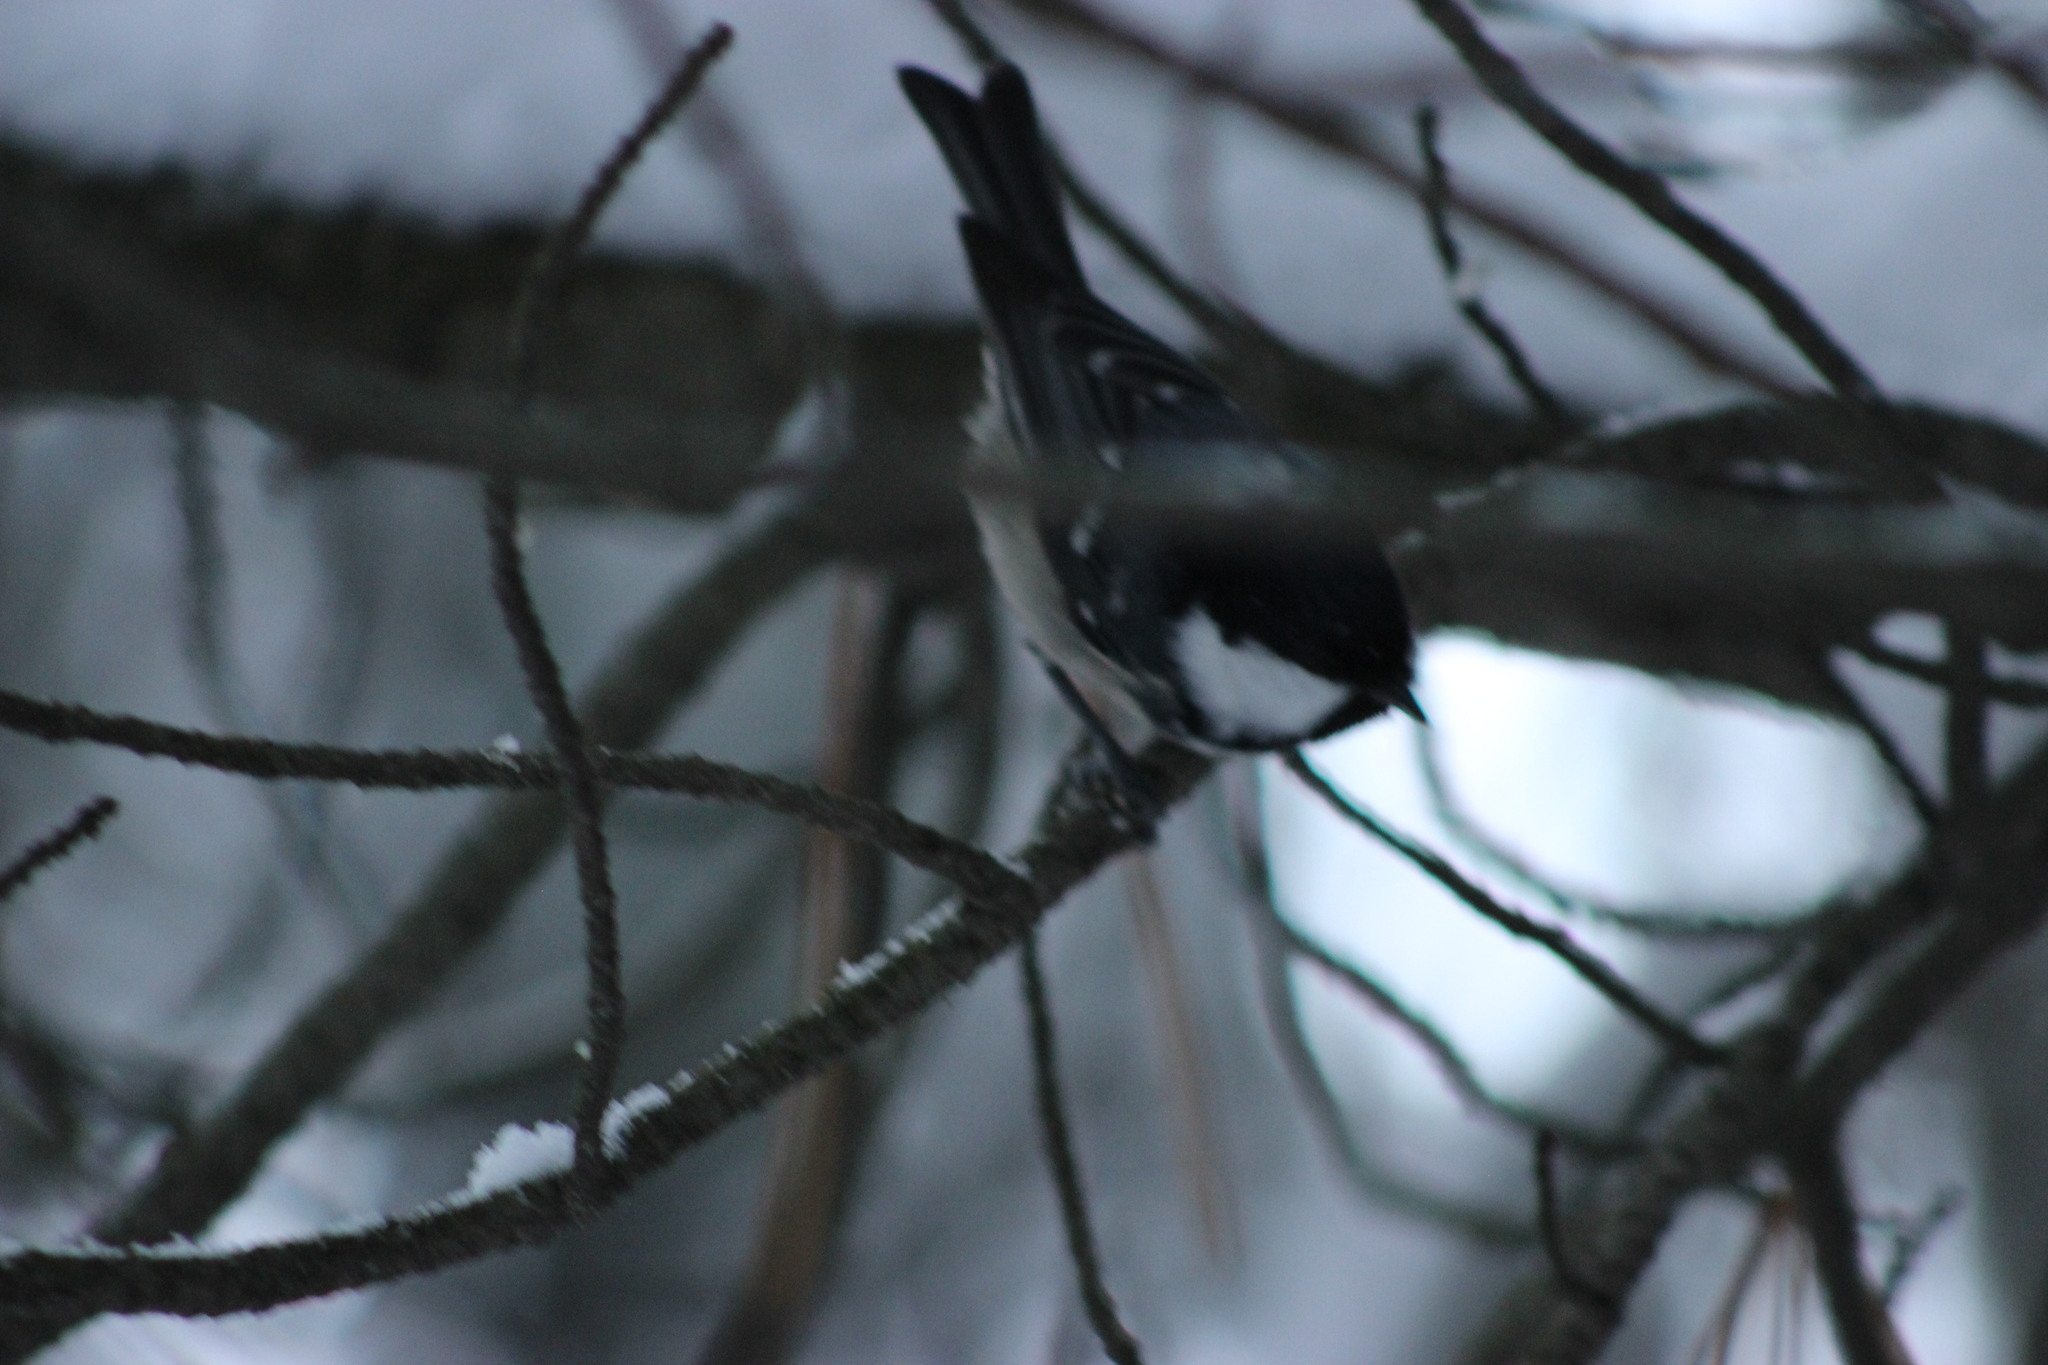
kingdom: Animalia
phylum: Chordata
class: Aves
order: Passeriformes
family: Paridae
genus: Periparus
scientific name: Periparus ater
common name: Coal tit
